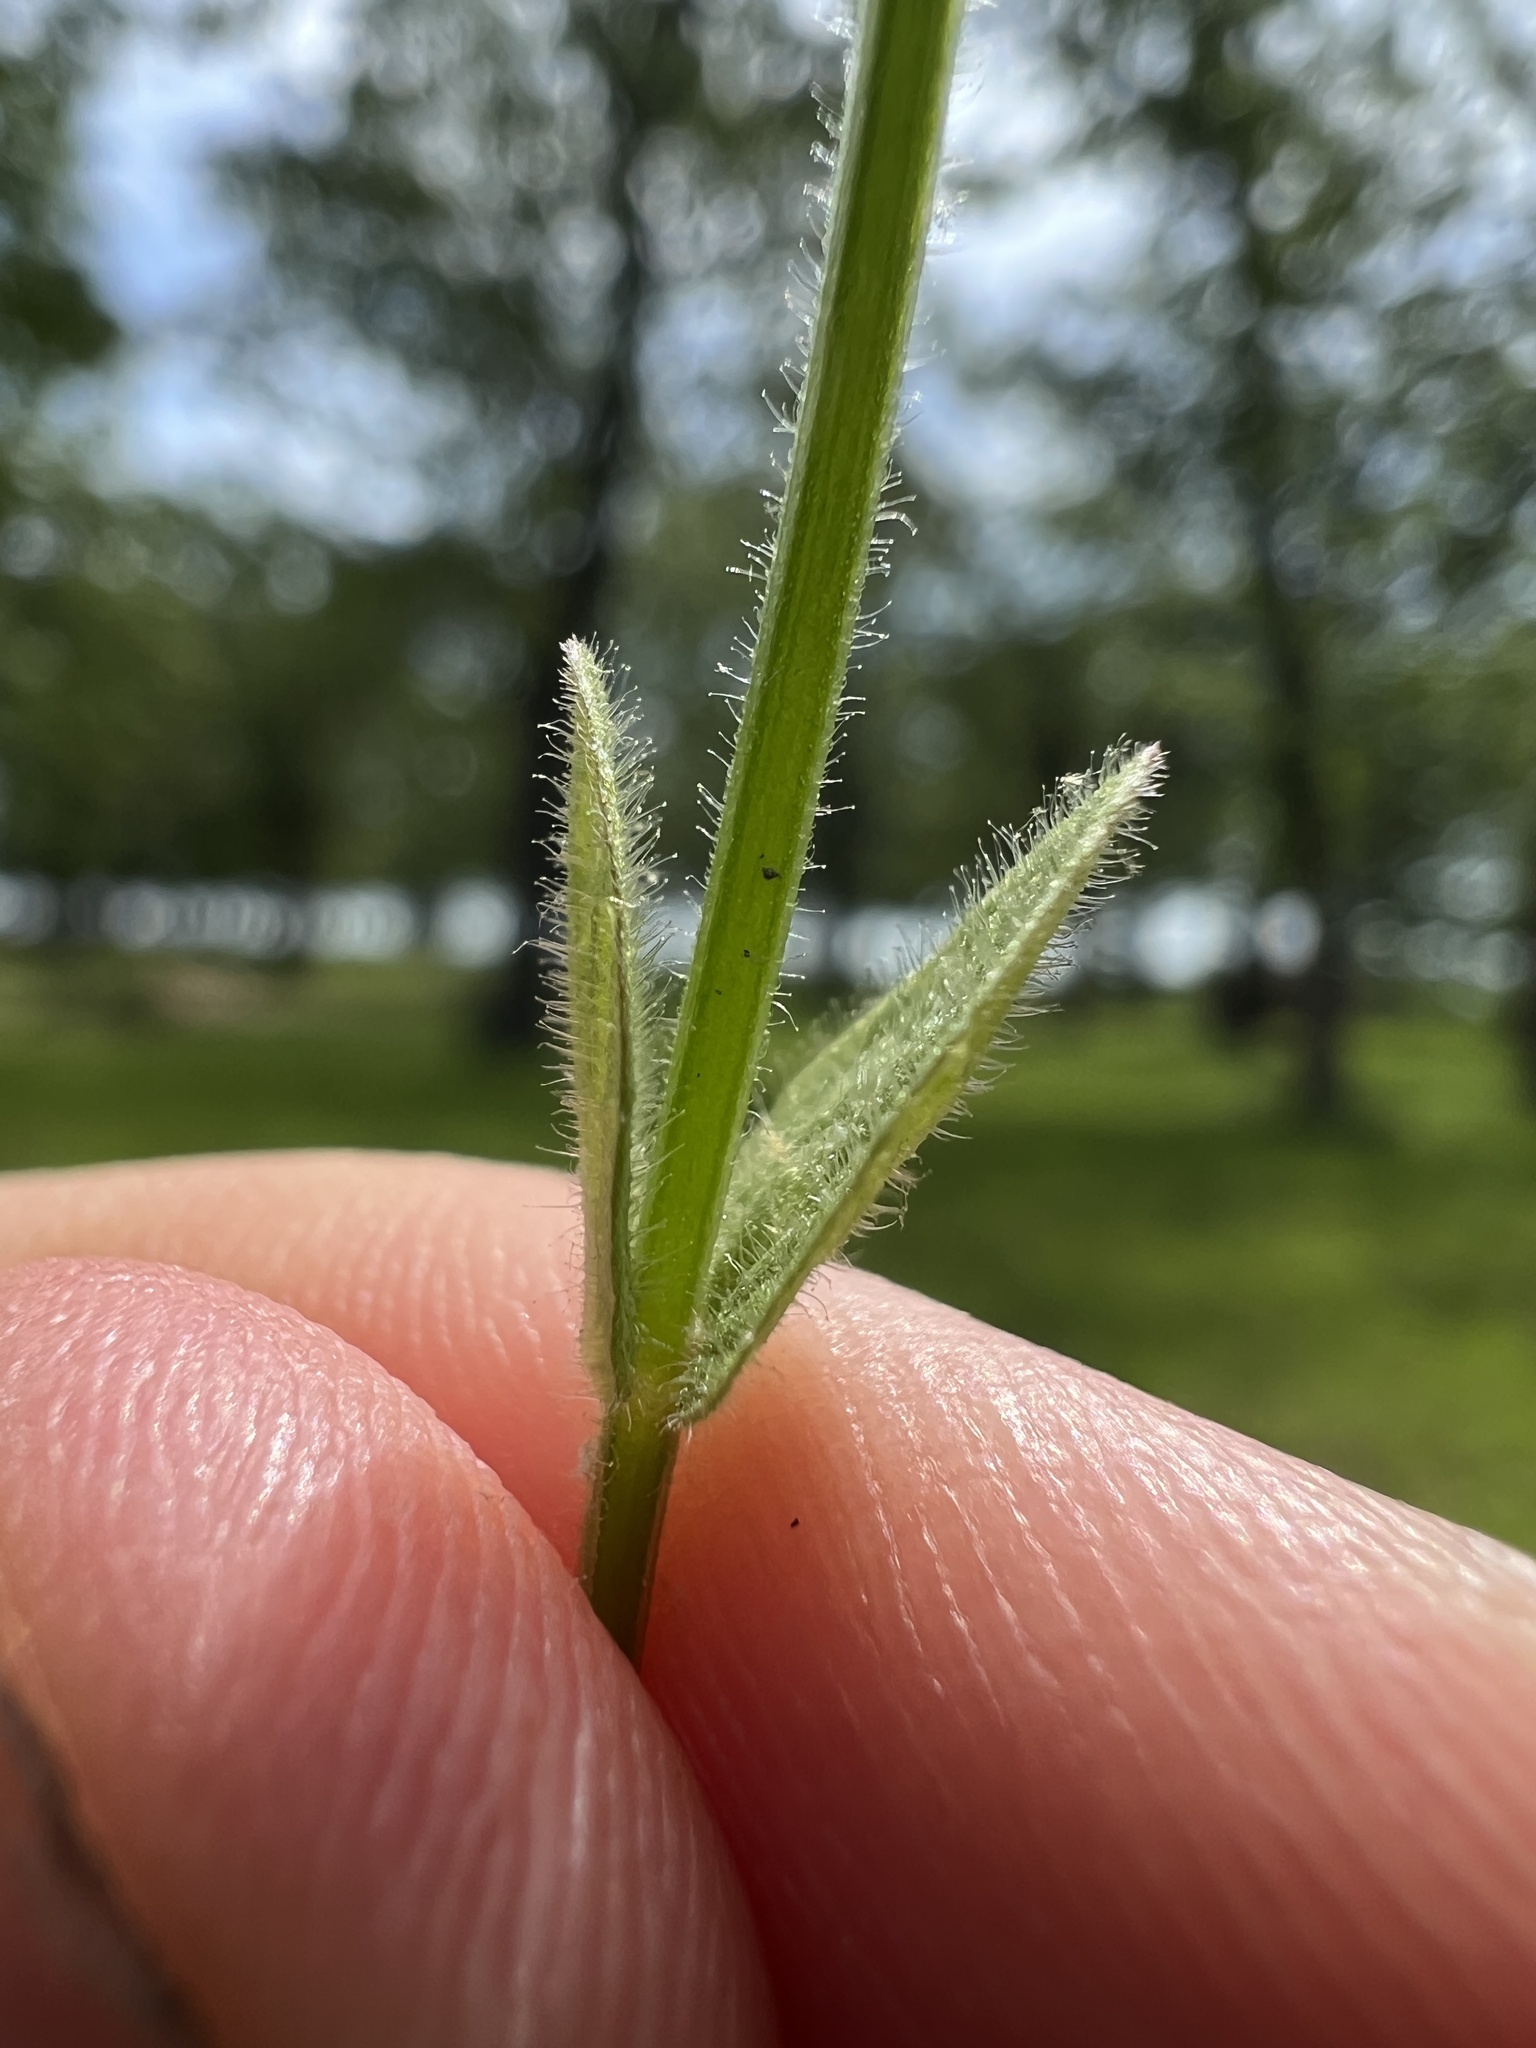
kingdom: Plantae
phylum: Tracheophyta
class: Magnoliopsida
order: Lamiales
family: Lamiaceae
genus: Scutellaria
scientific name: Scutellaria parvula
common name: Little scullcap
